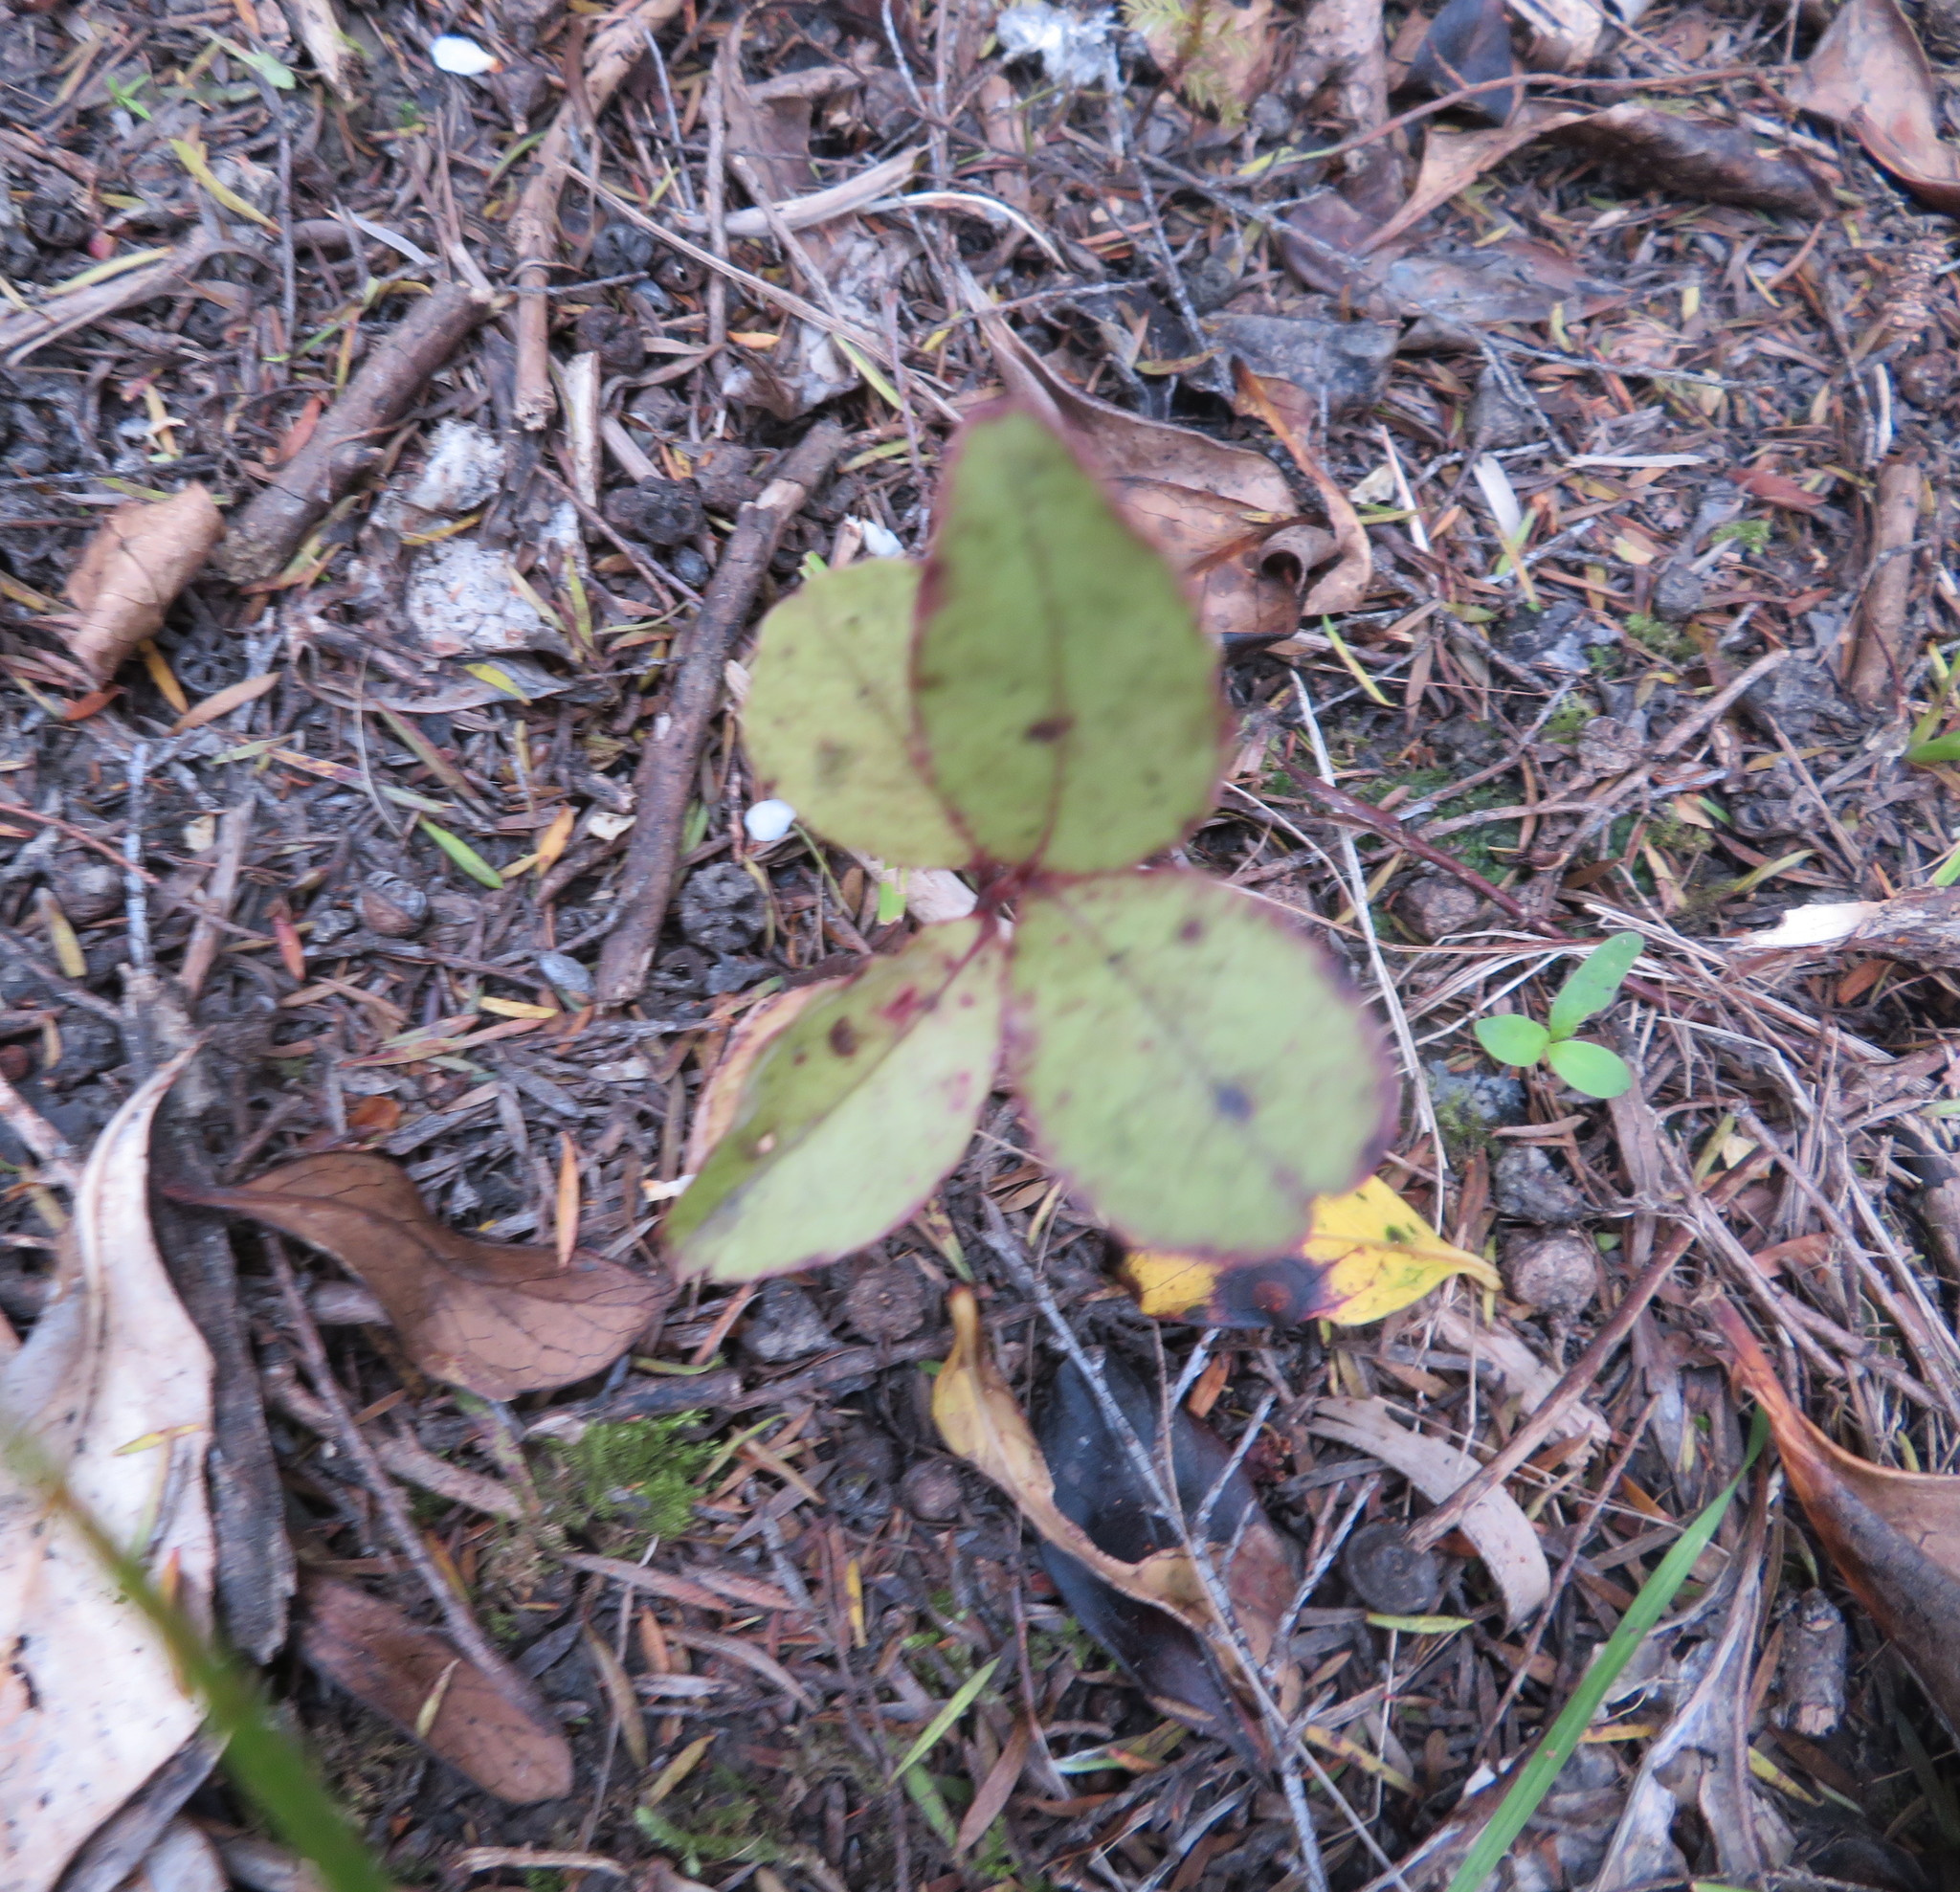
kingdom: Plantae
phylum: Tracheophyta
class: Magnoliopsida
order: Ericales
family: Primulaceae
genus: Myrsine
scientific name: Myrsine australis
